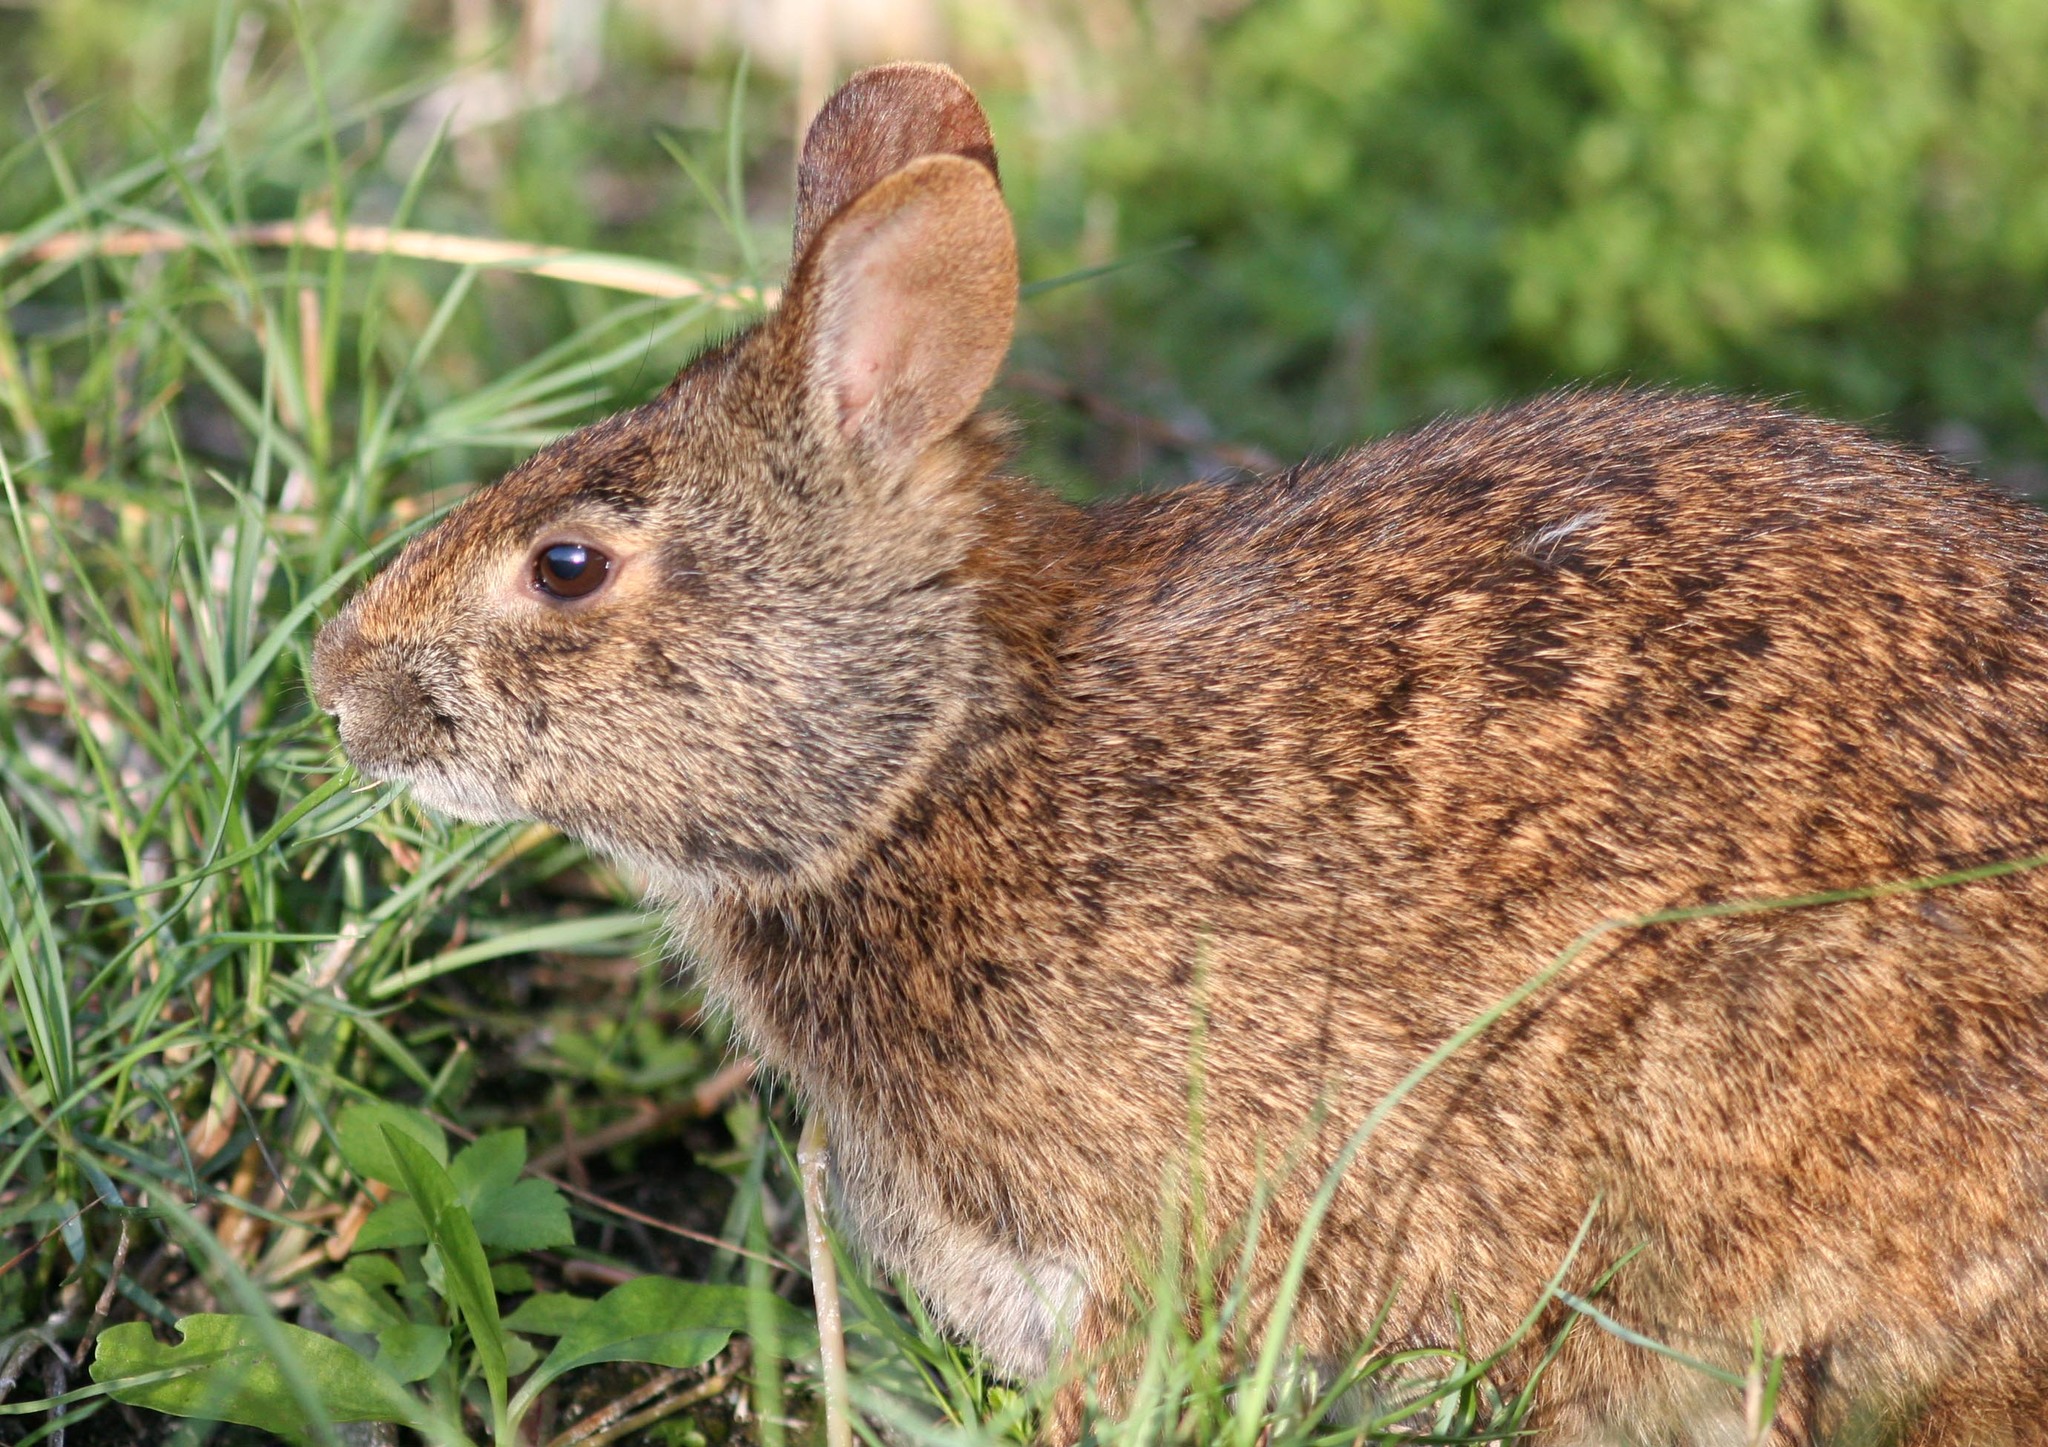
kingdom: Animalia
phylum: Chordata
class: Mammalia
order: Lagomorpha
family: Leporidae
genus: Sylvilagus
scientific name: Sylvilagus palustris
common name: Marsh rabbit
